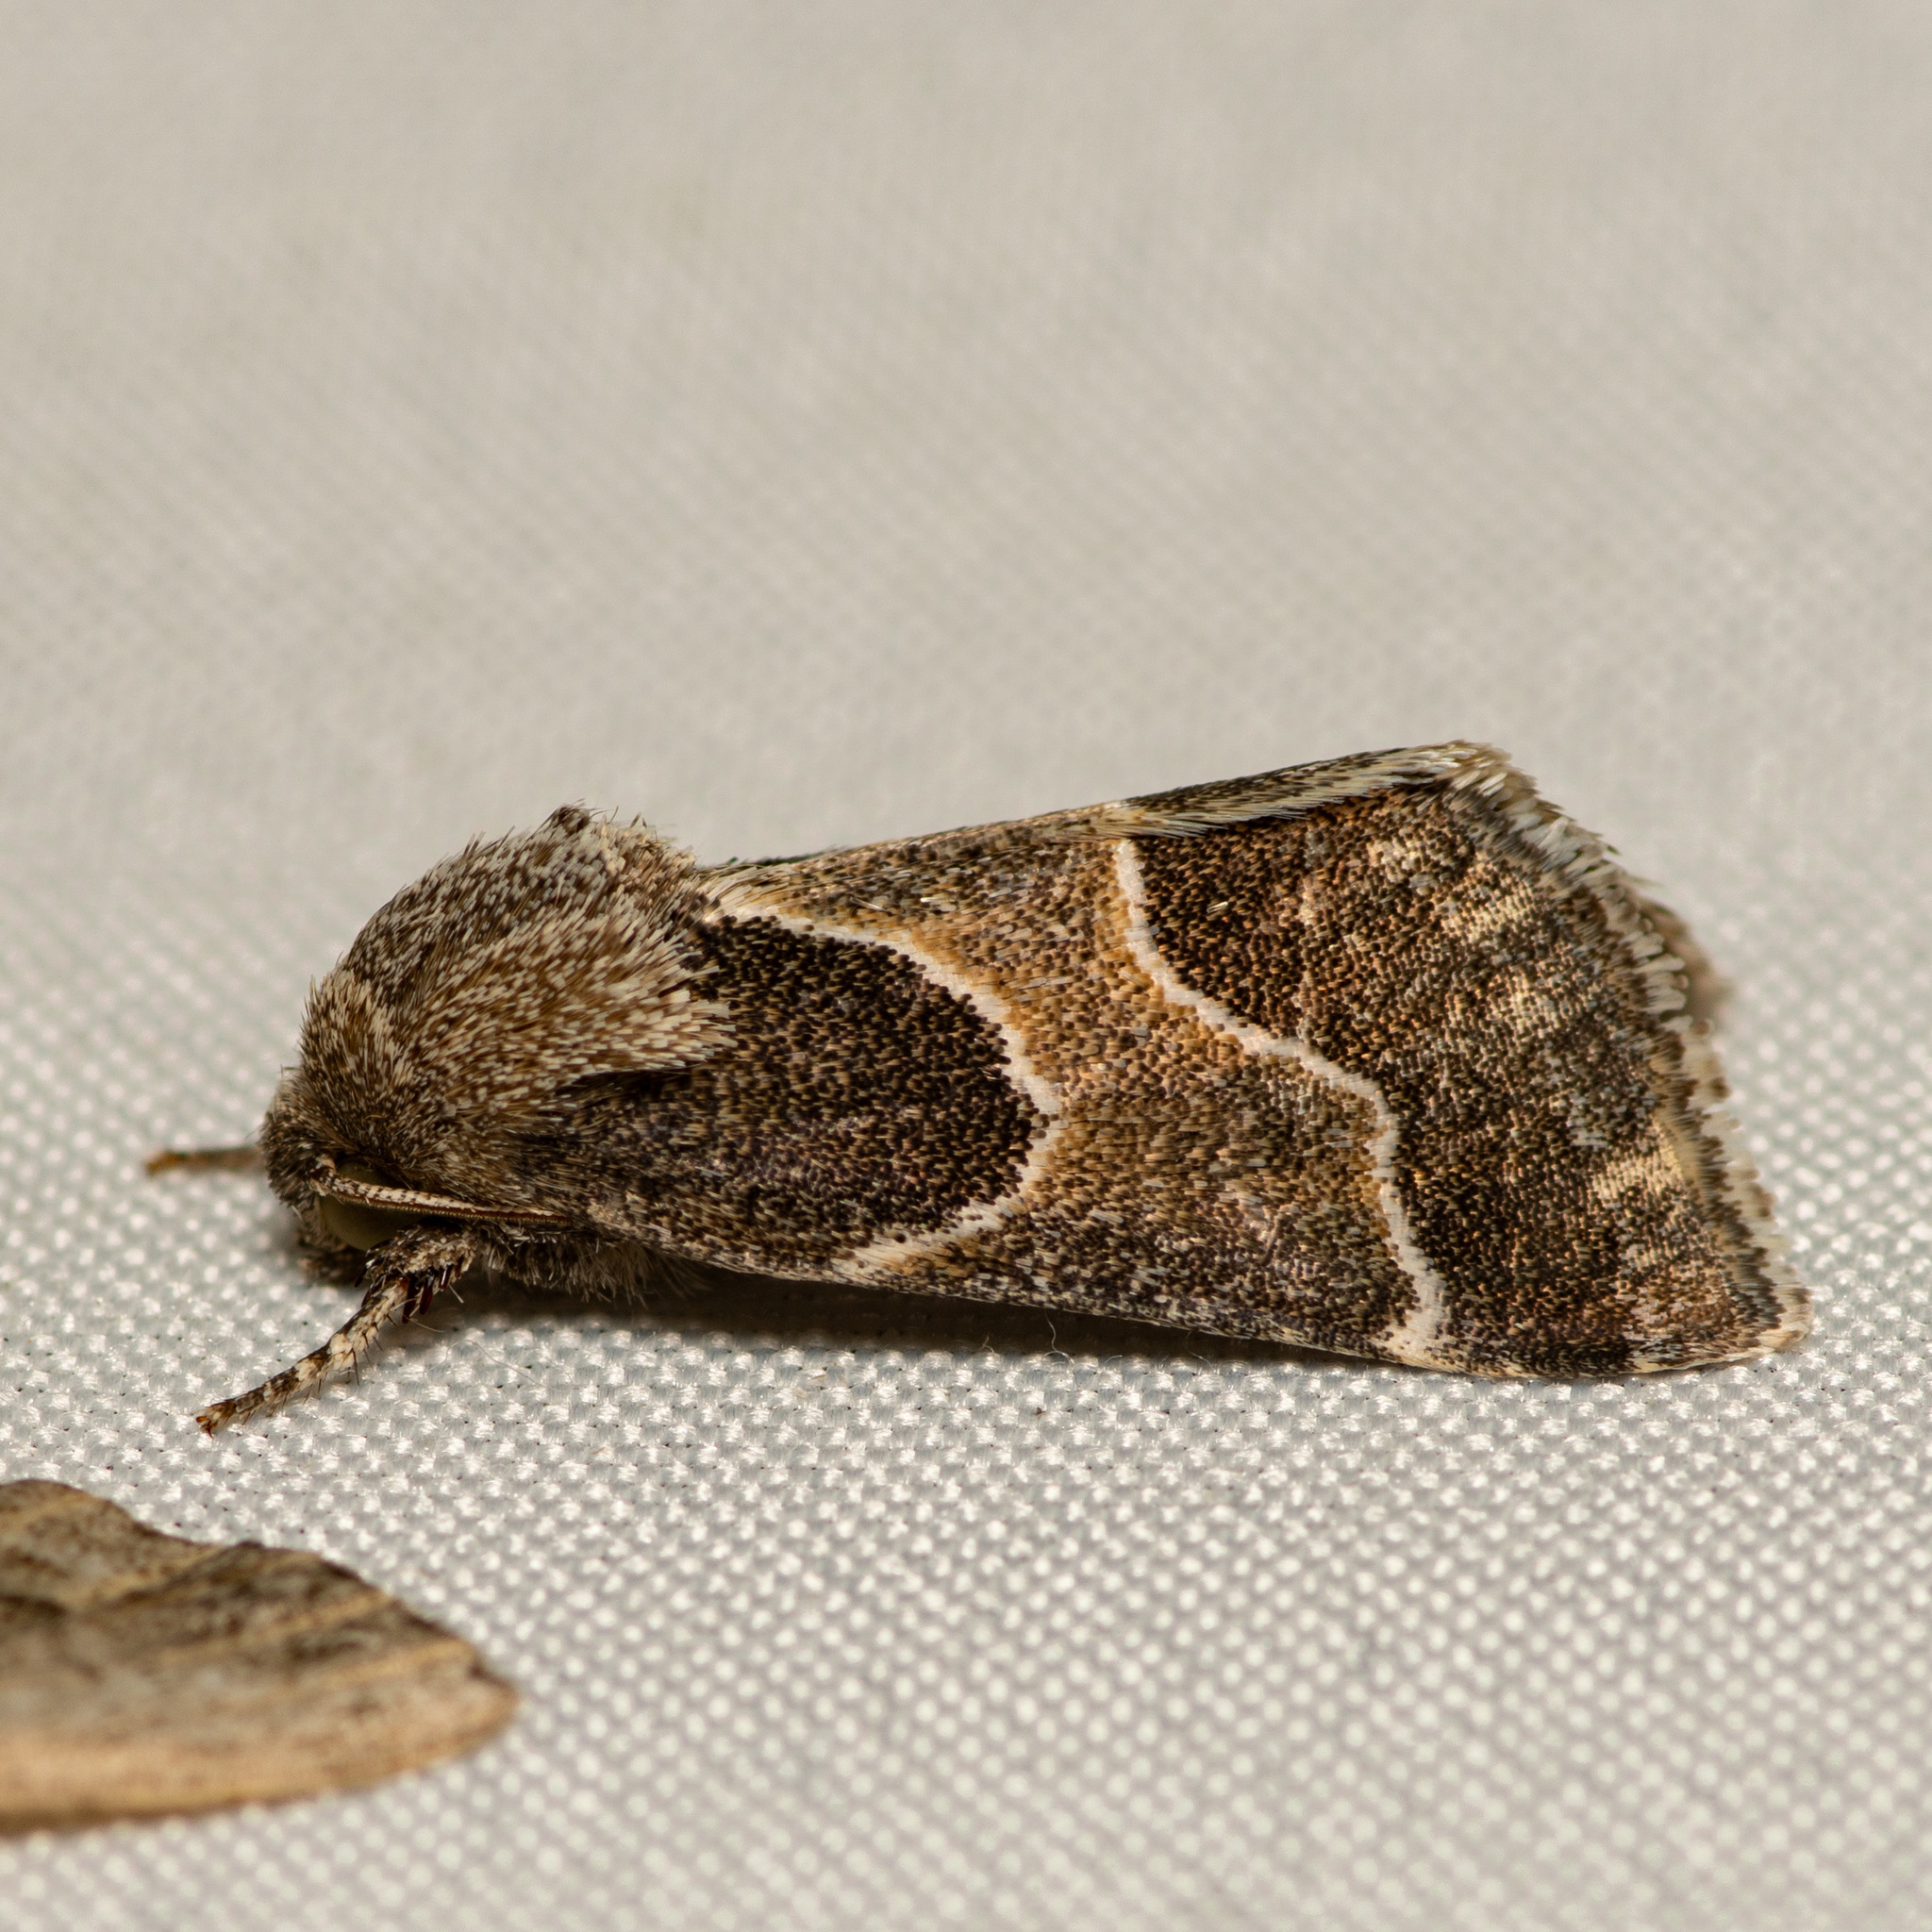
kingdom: Animalia
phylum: Arthropoda
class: Insecta
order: Lepidoptera
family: Noctuidae
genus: Schinia
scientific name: Schinia rivulosa
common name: Scarce meal-moth
